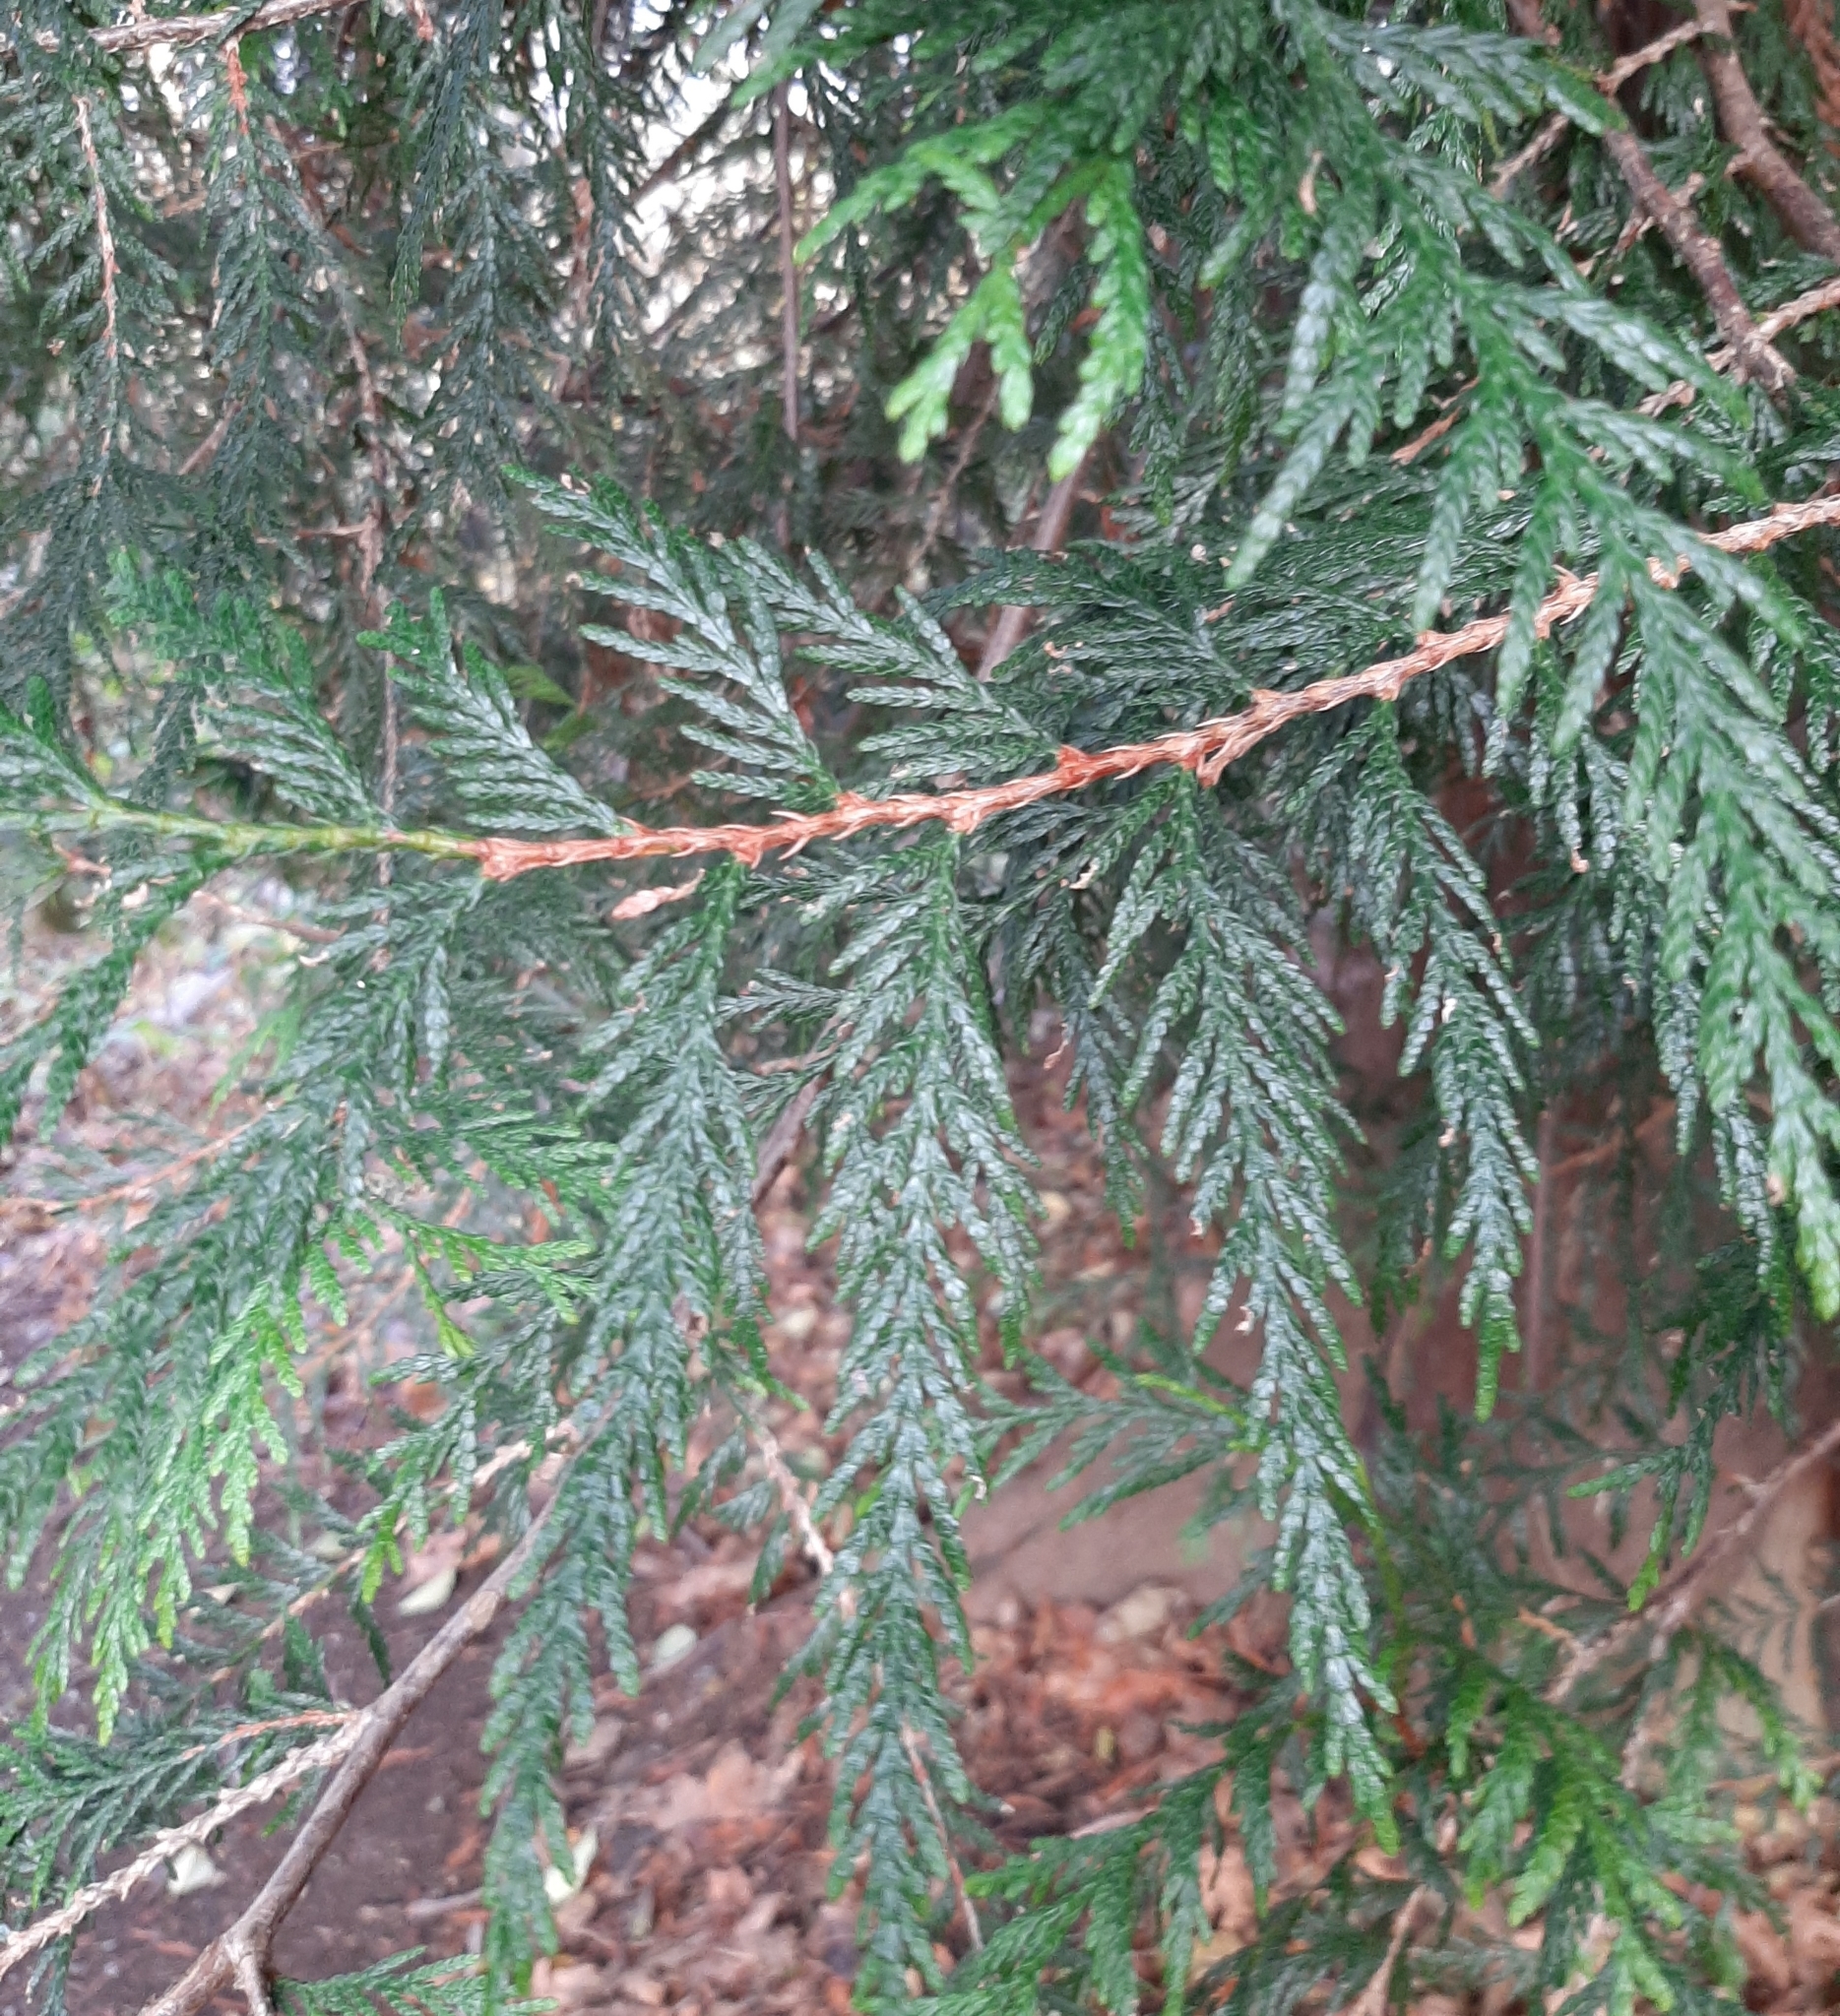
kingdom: Plantae
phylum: Tracheophyta
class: Pinopsida
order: Pinales
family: Cupressaceae
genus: Thuja
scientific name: Thuja plicata
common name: Western red-cedar
